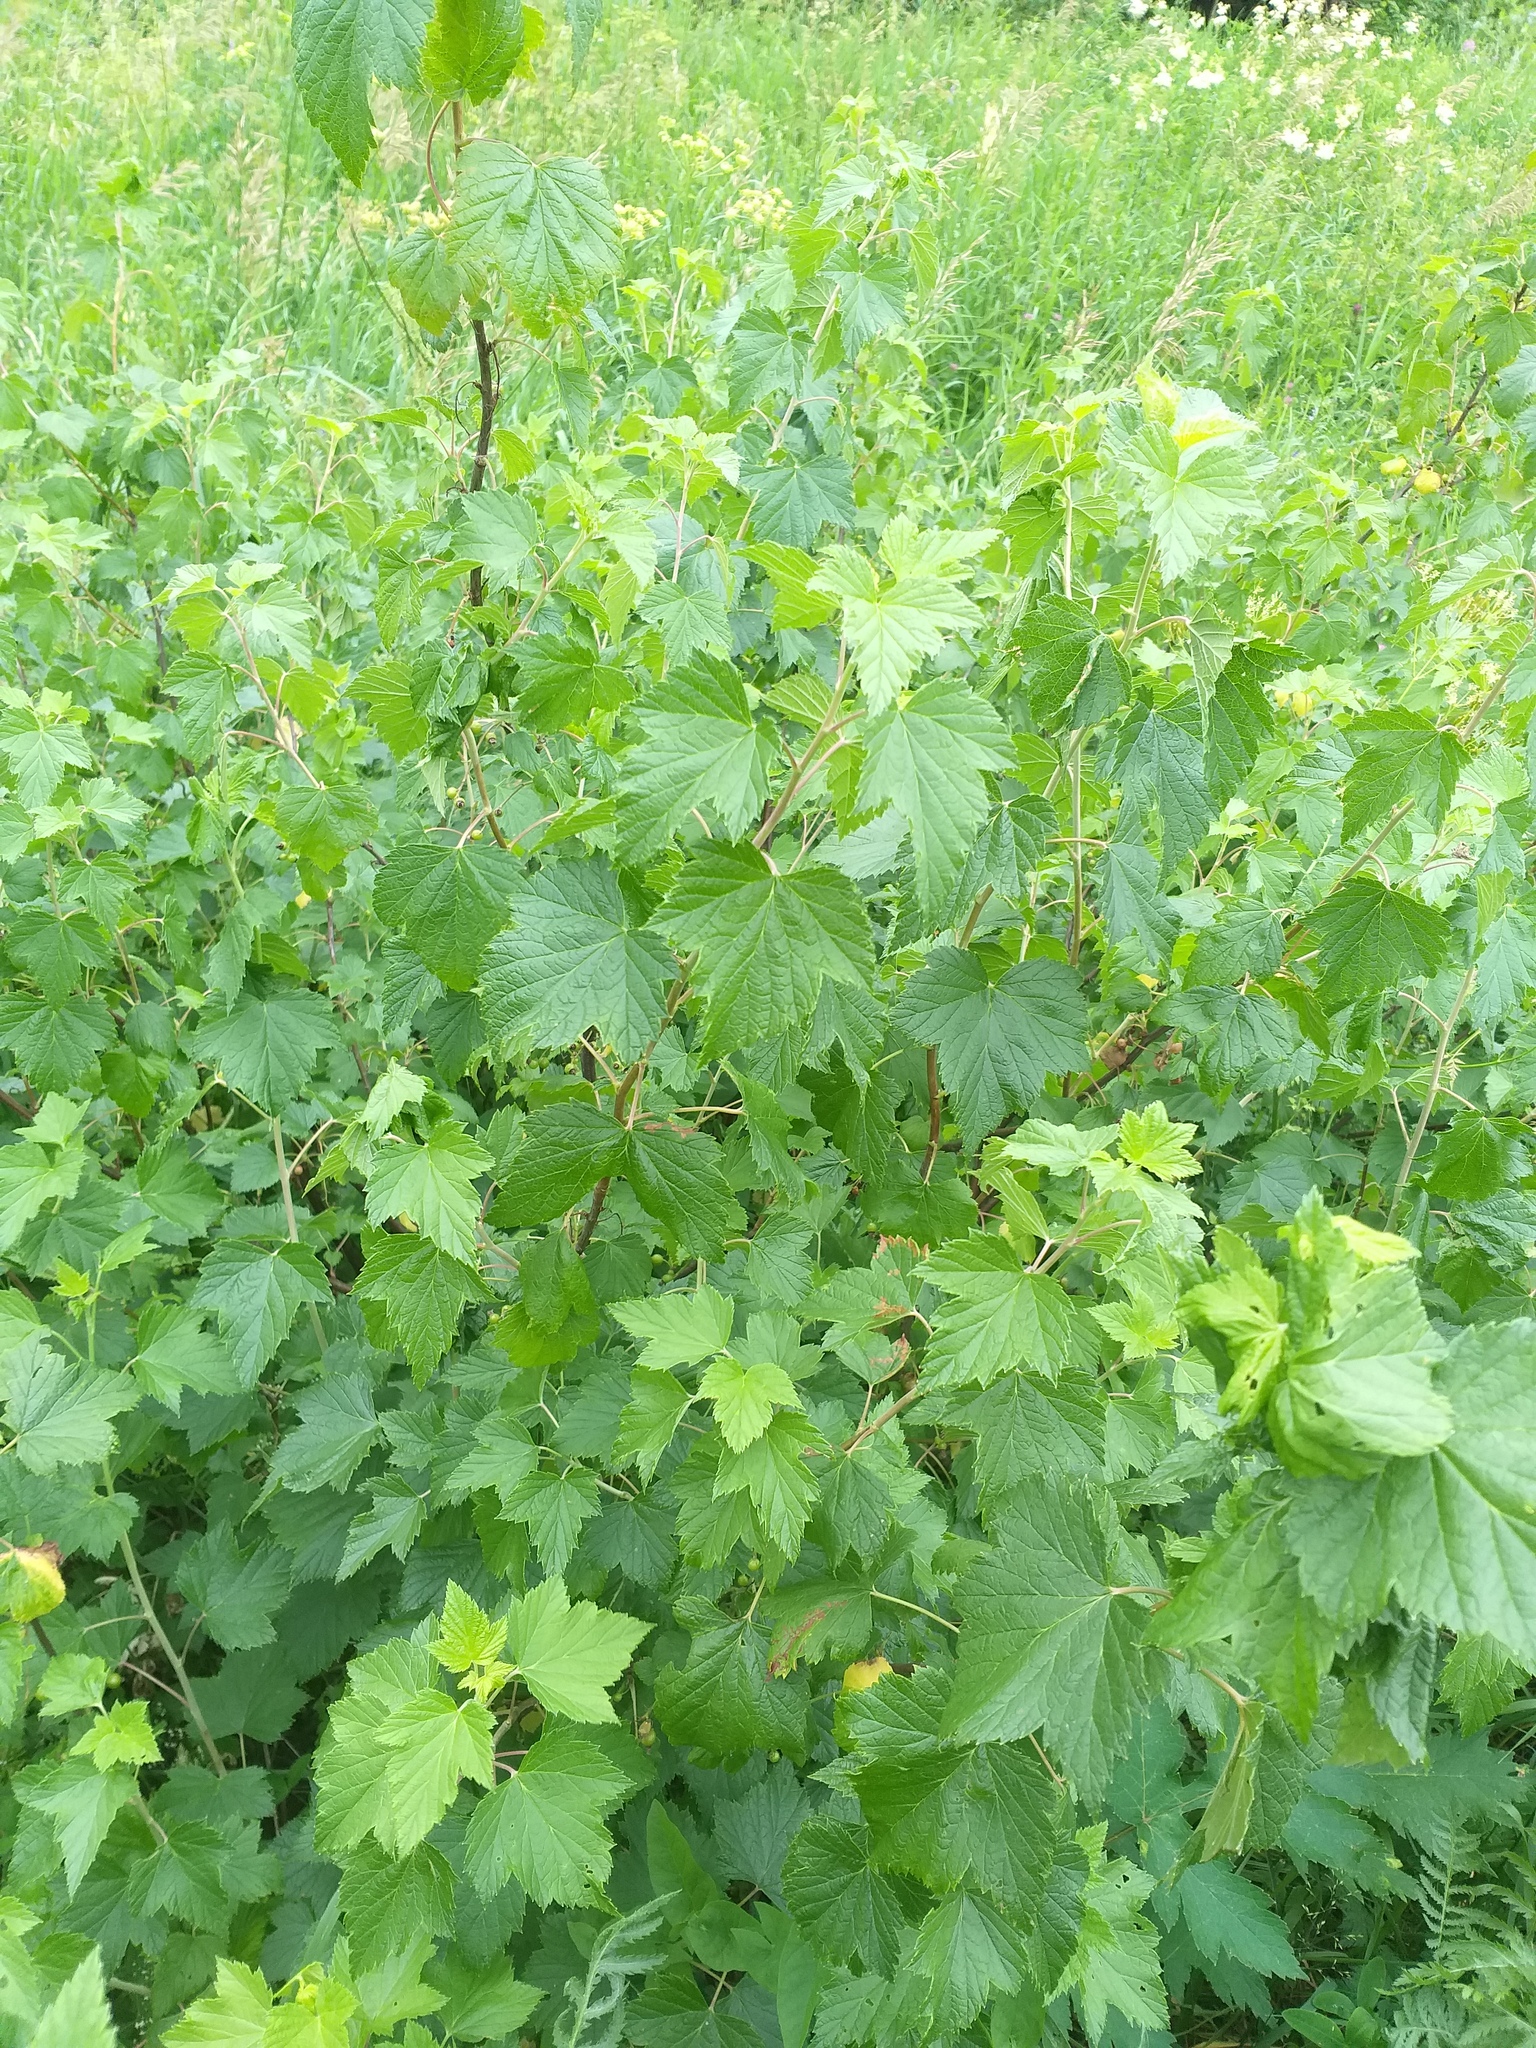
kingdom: Plantae
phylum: Tracheophyta
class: Magnoliopsida
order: Saxifragales
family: Grossulariaceae
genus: Ribes
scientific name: Ribes nigrum
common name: Black currant
